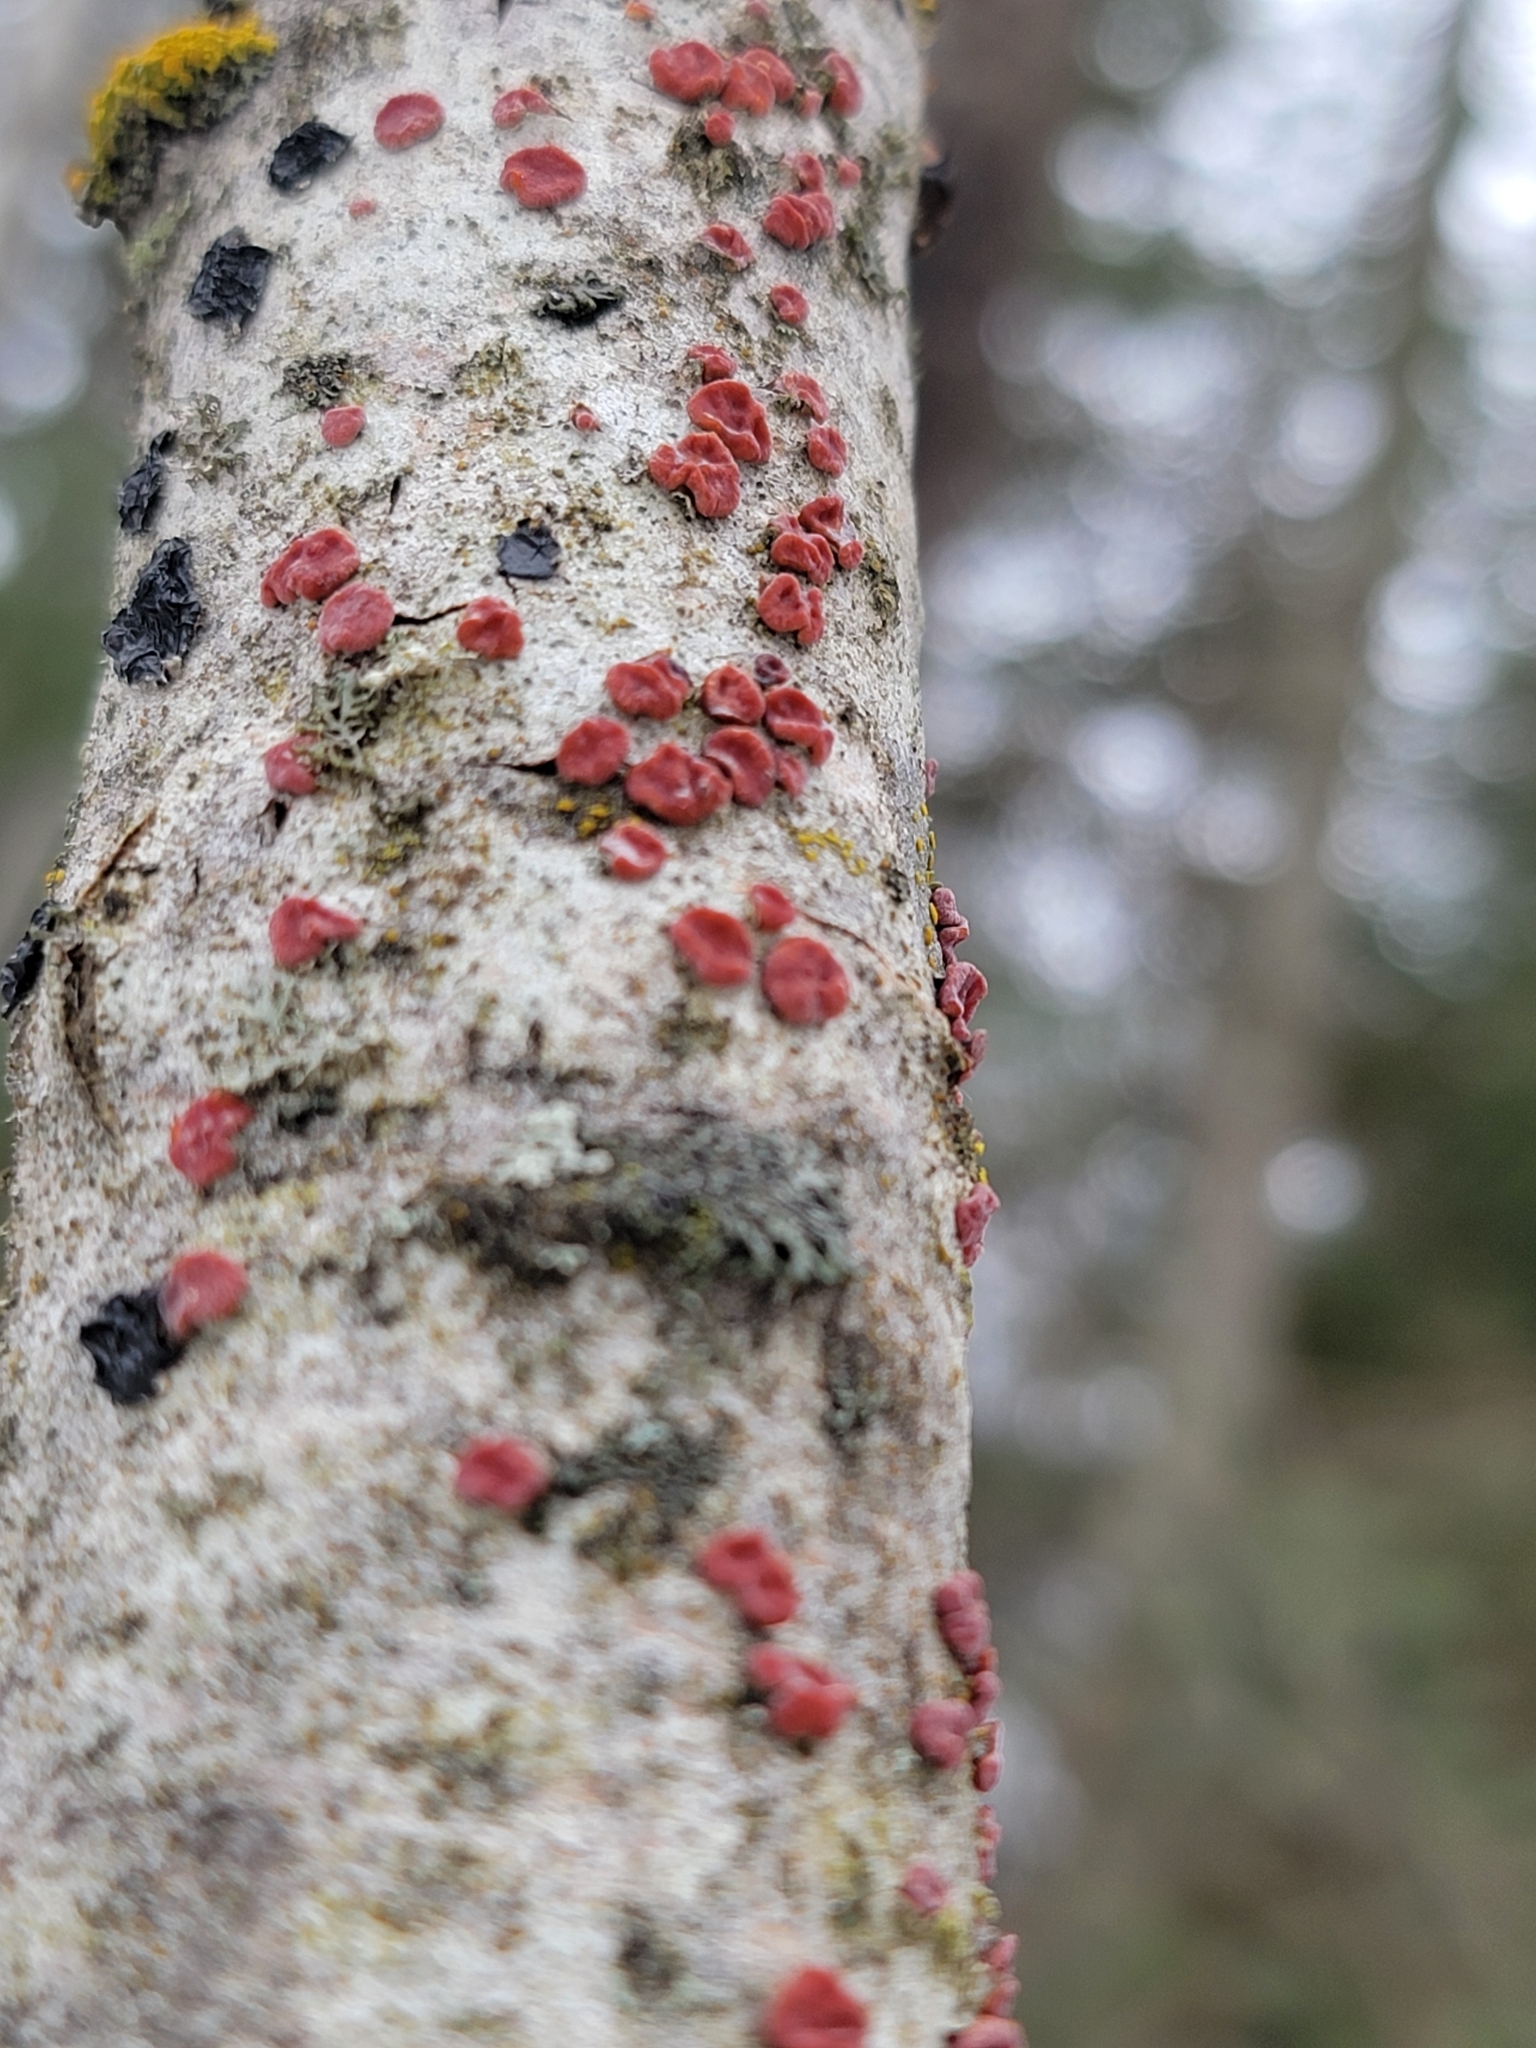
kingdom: Fungi
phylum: Basidiomycota
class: Agaricomycetes
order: Russulales
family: Peniophoraceae
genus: Peniophora
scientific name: Peniophora rufa
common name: Red tree brain fungus
